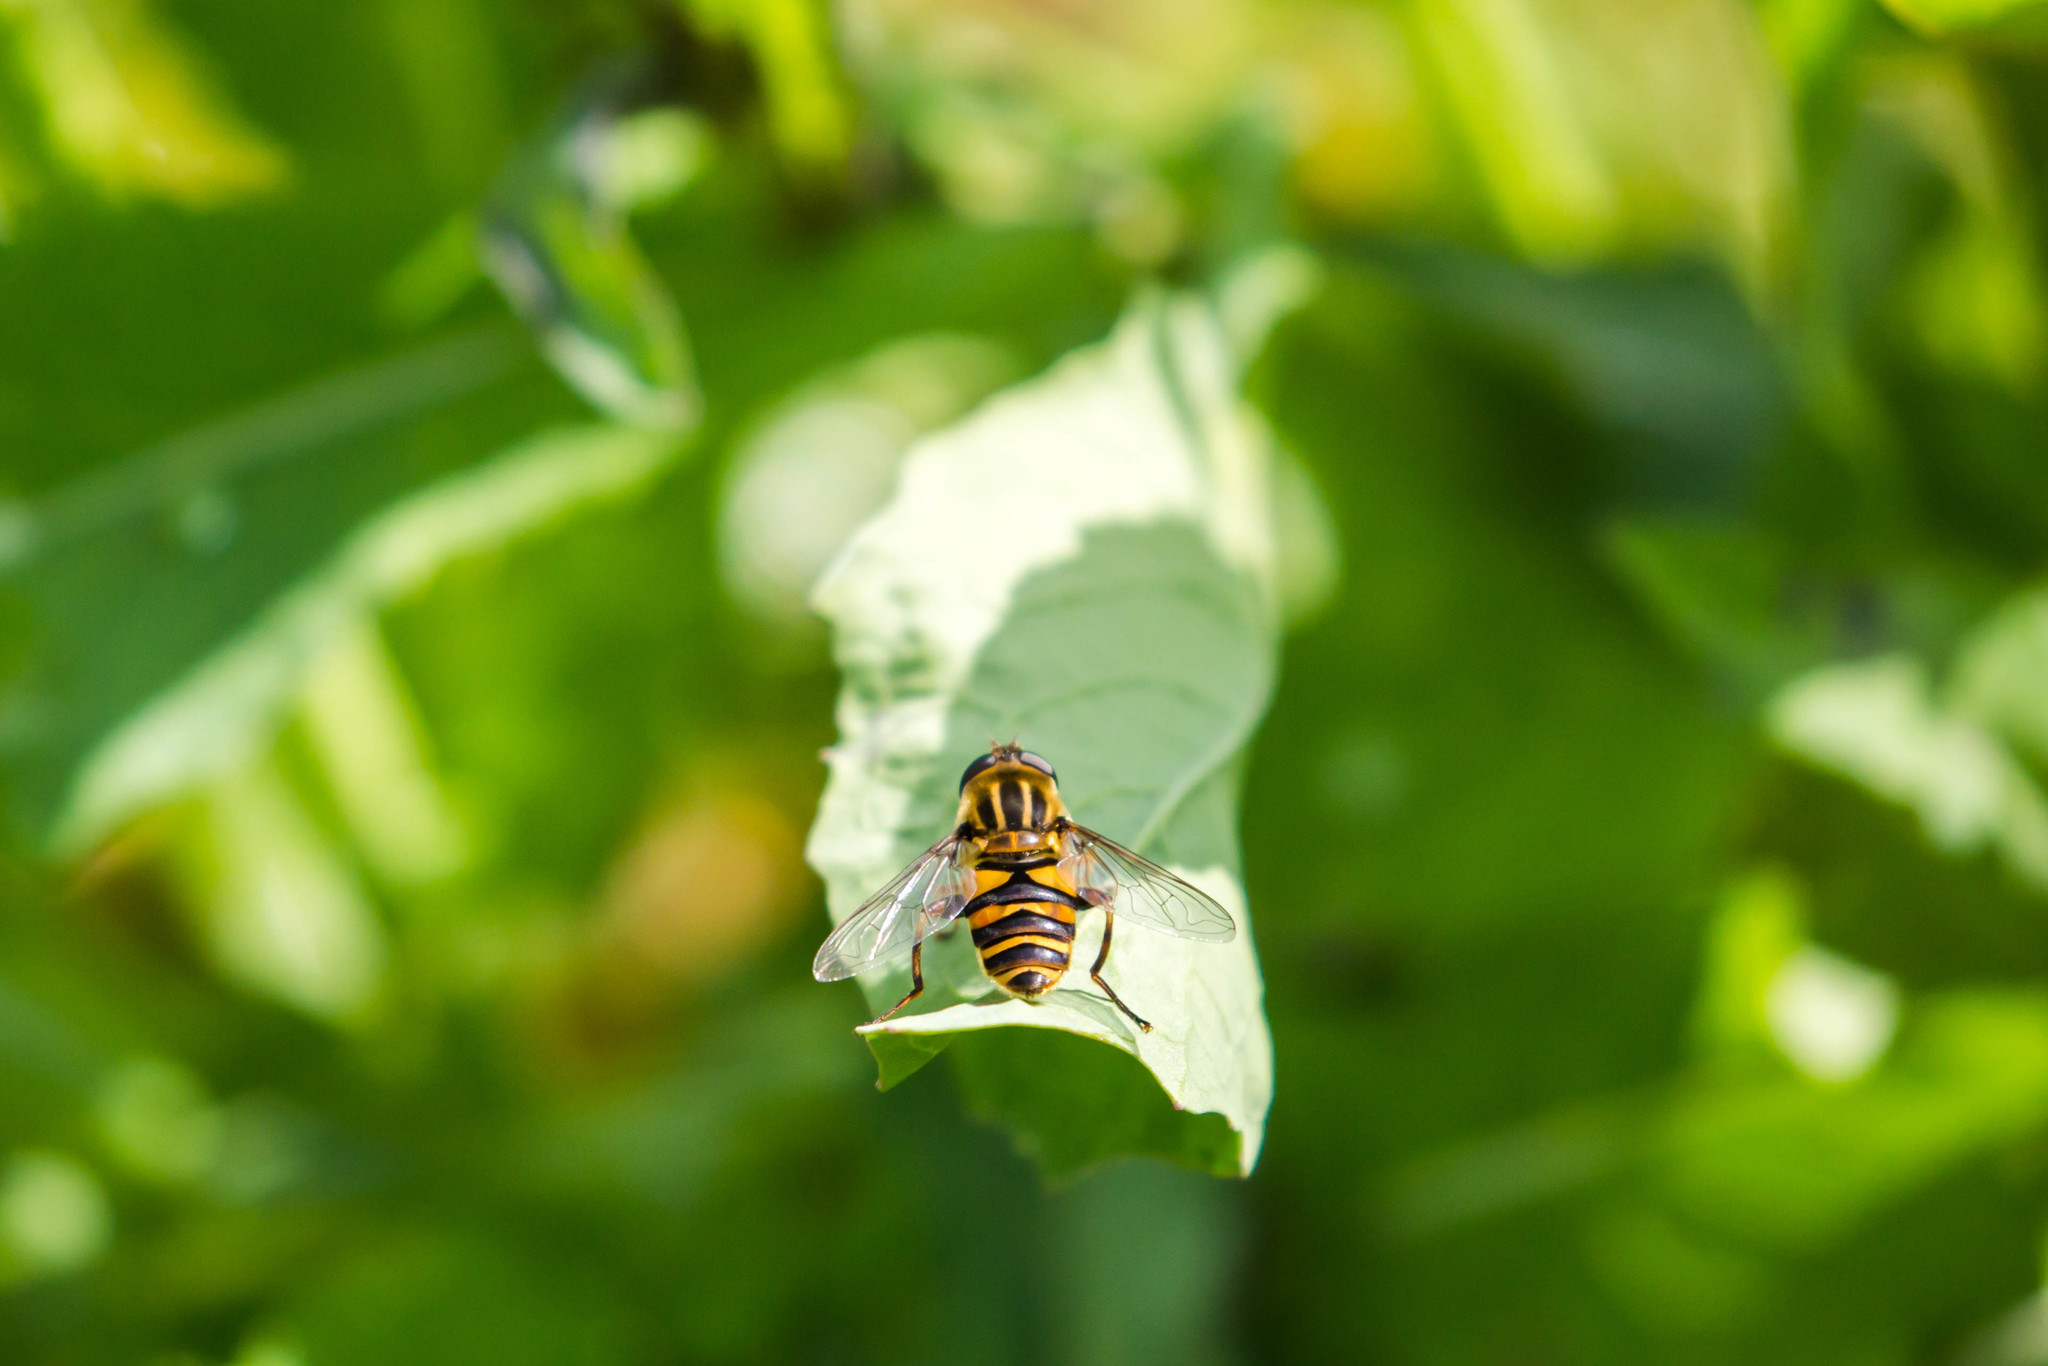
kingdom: Animalia
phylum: Arthropoda
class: Insecta
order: Diptera
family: Syrphidae
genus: Helophilus
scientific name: Helophilus fasciatus
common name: Narrow-headed marsh fly
